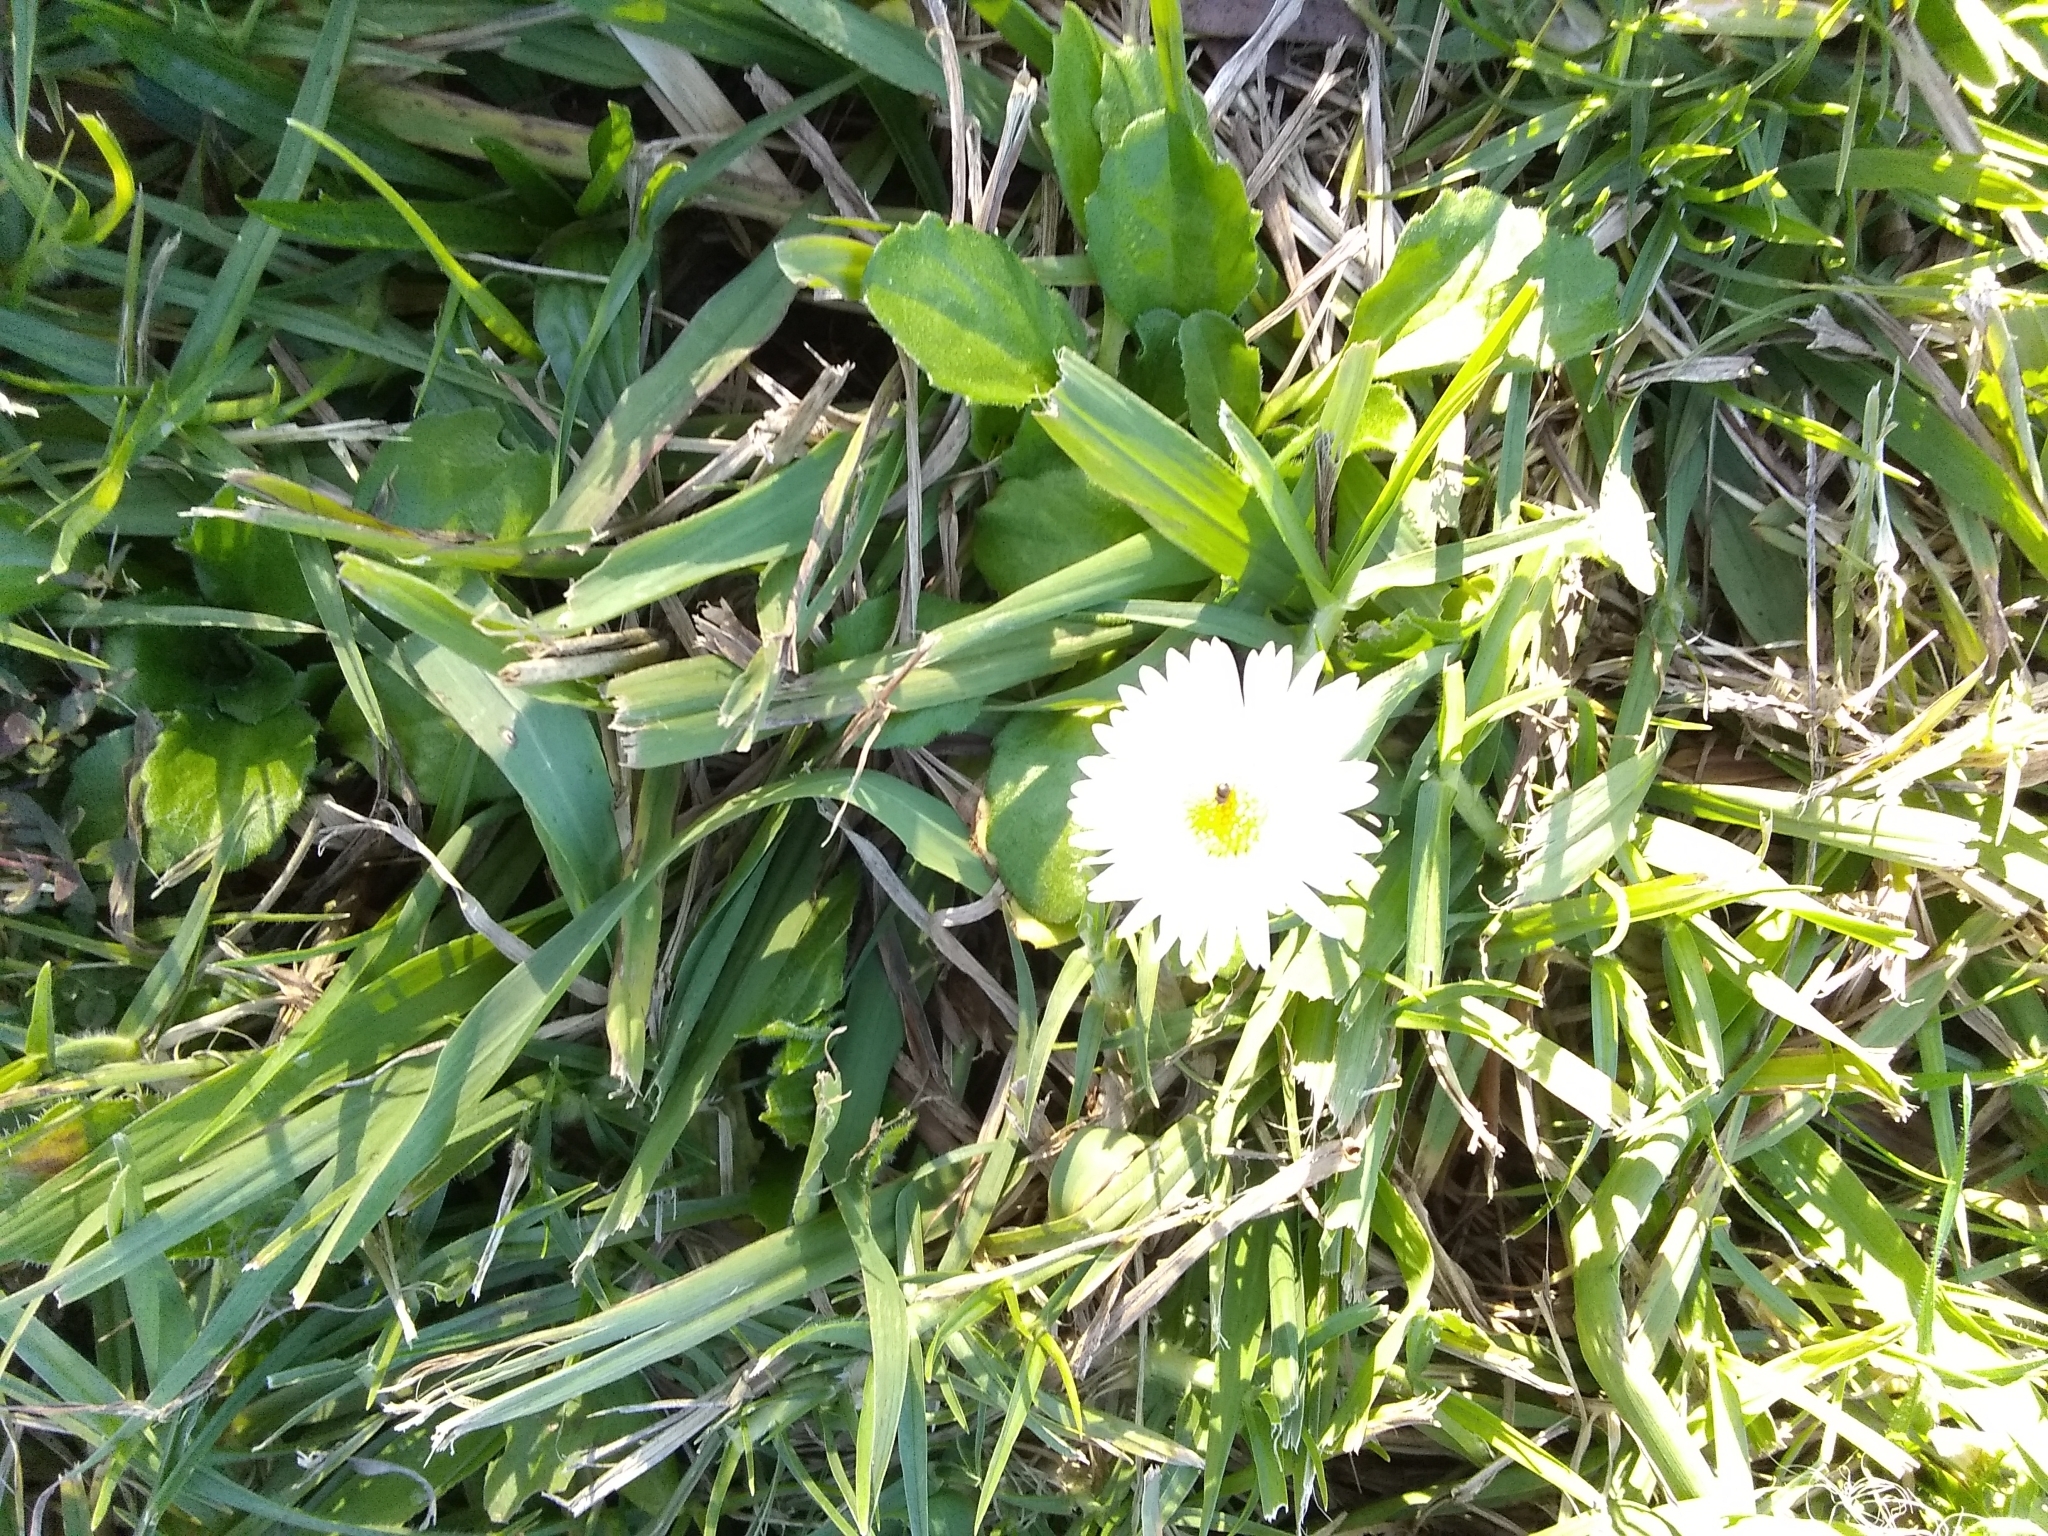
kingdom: Plantae
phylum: Tracheophyta
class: Magnoliopsida
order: Asterales
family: Asteraceae
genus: Bellis
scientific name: Bellis perennis
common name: Lawndaisy
